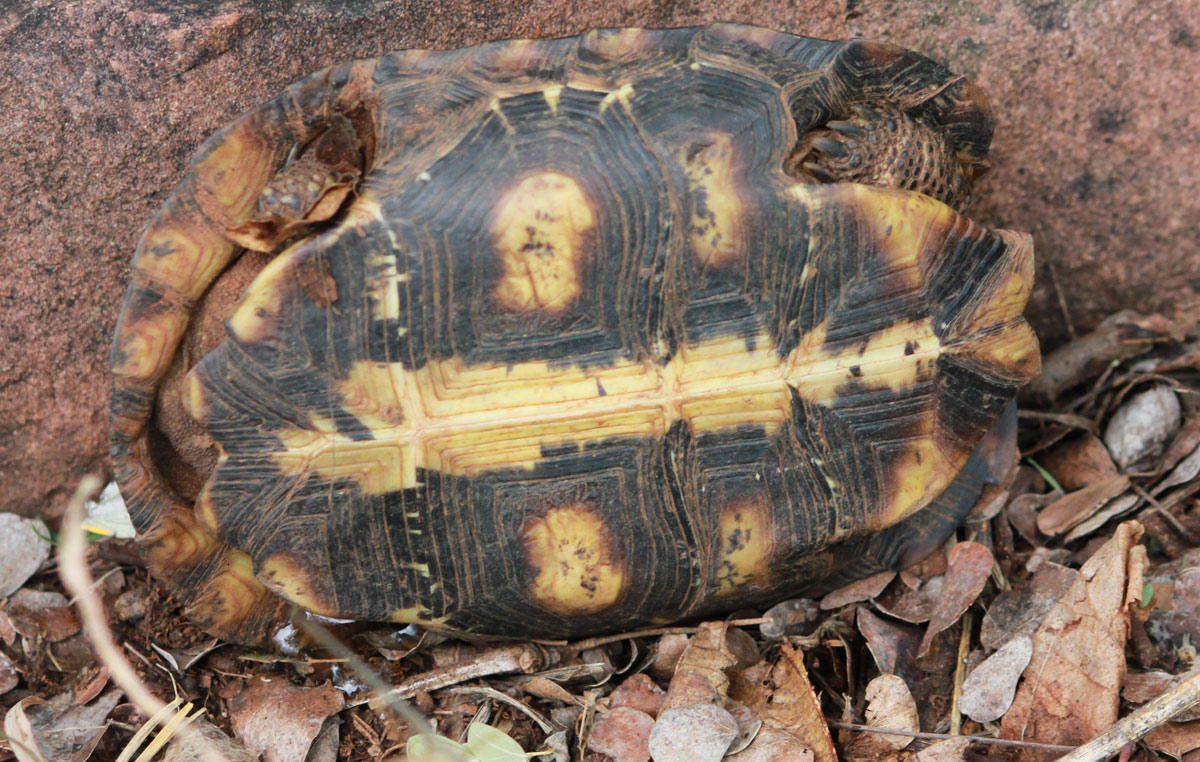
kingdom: Animalia
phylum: Chordata
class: Testudines
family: Testudinidae
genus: Kinixys
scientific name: Kinixys spekii
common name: Speke's hingeback tortoise
